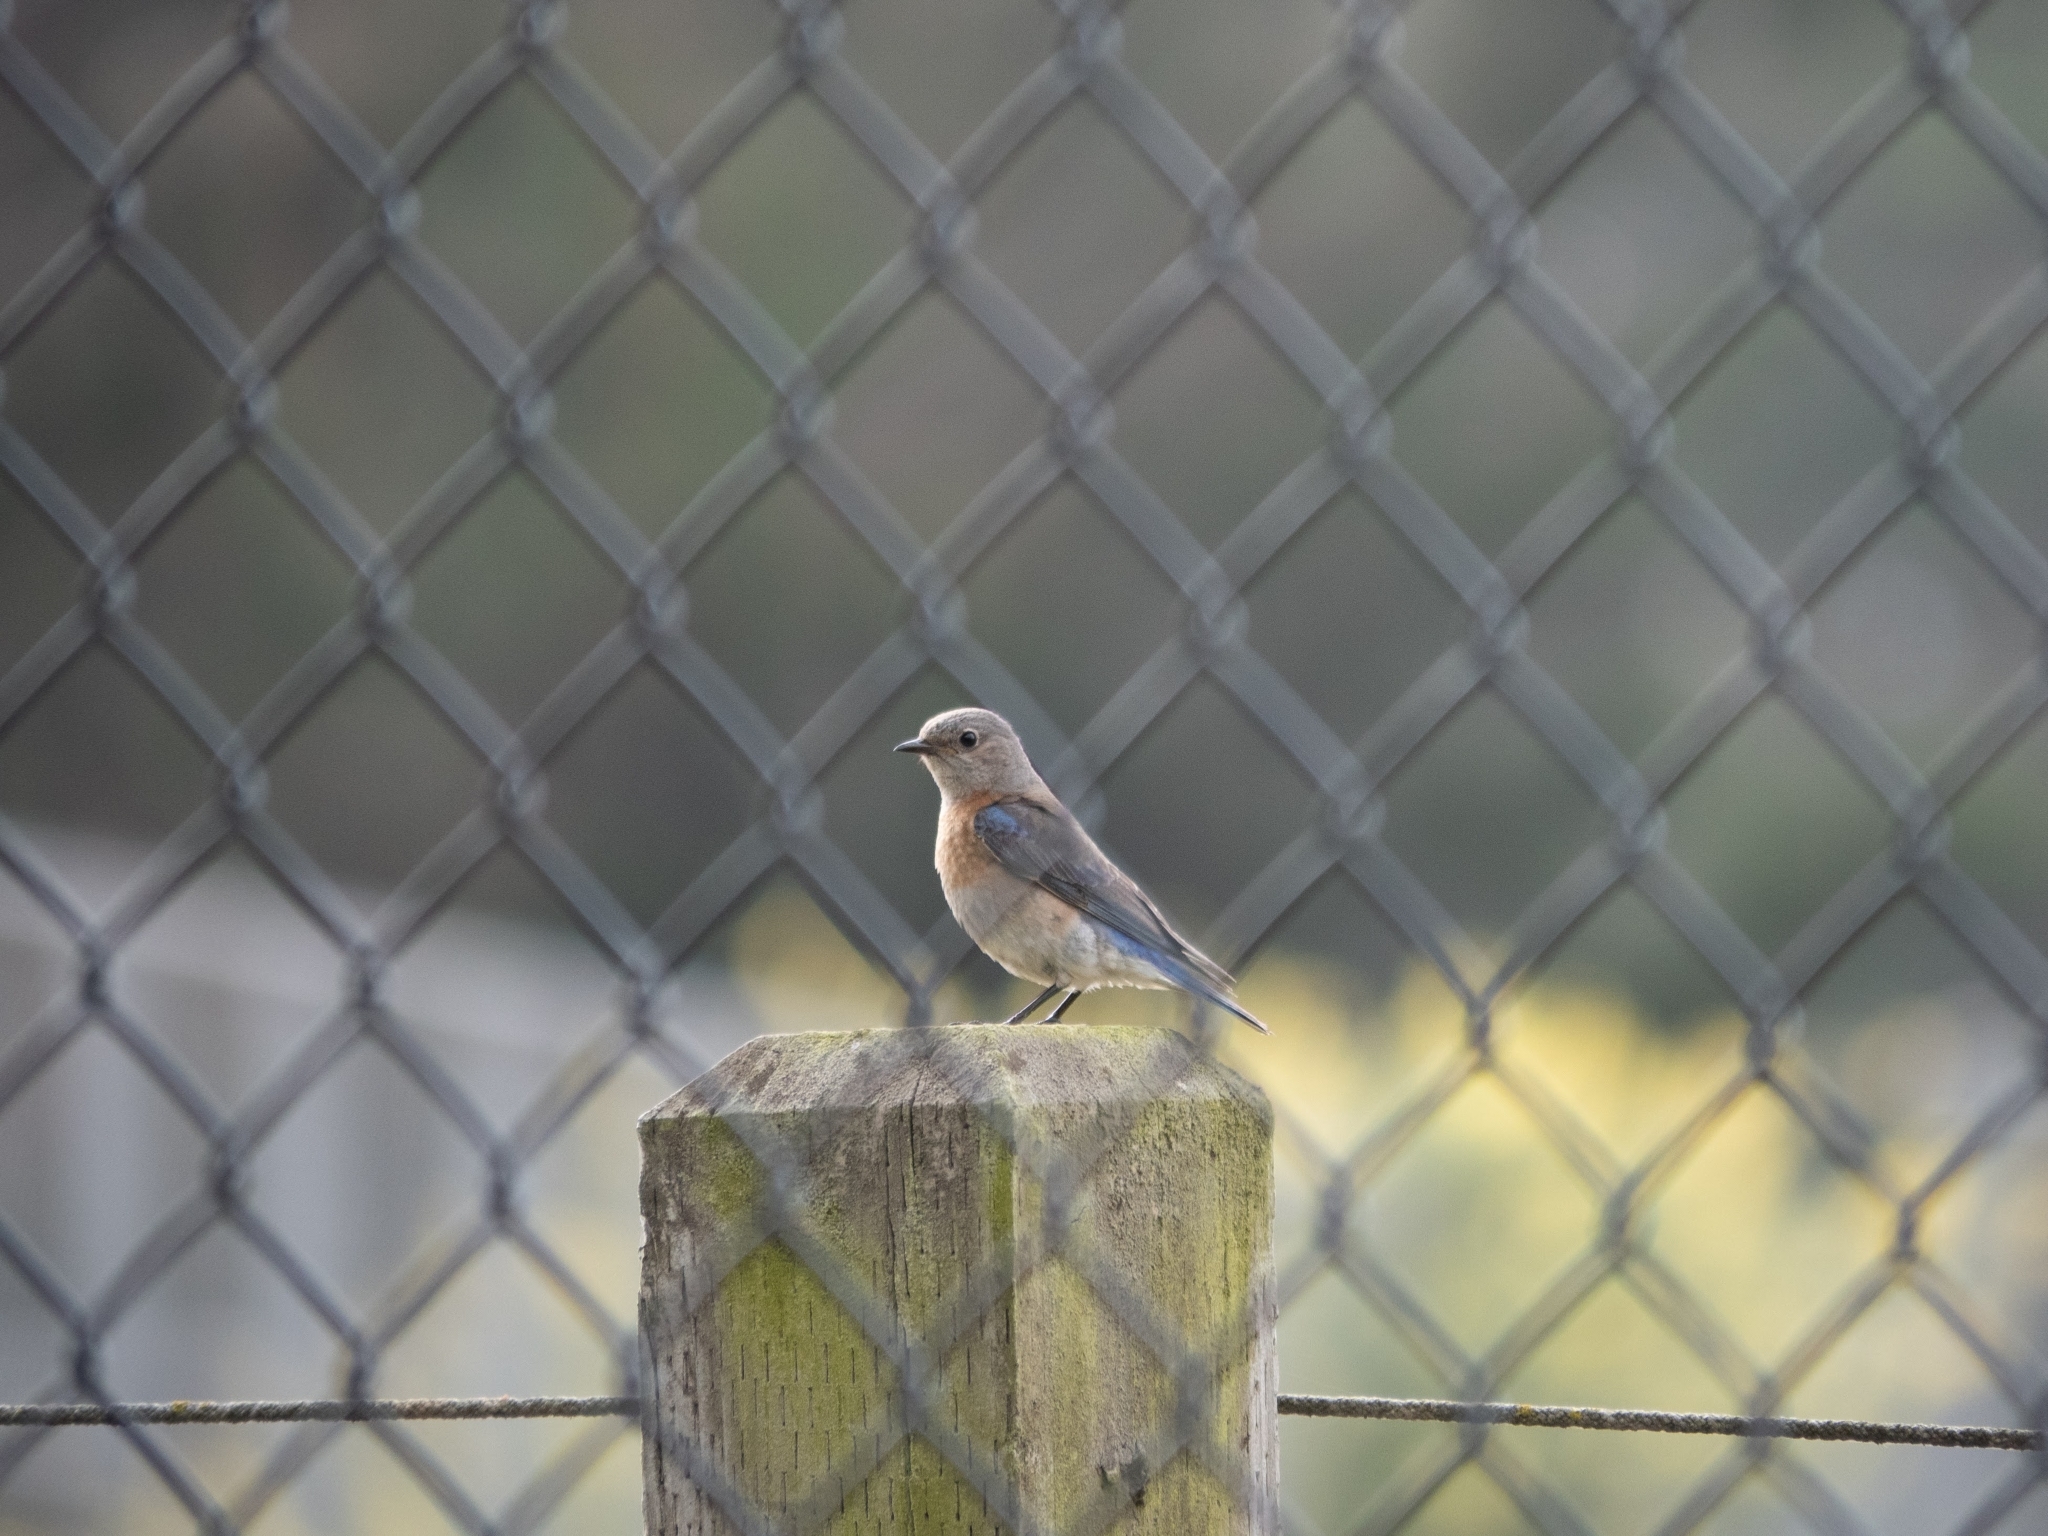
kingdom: Animalia
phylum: Chordata
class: Aves
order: Passeriformes
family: Turdidae
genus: Sialia
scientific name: Sialia mexicana
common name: Western bluebird
